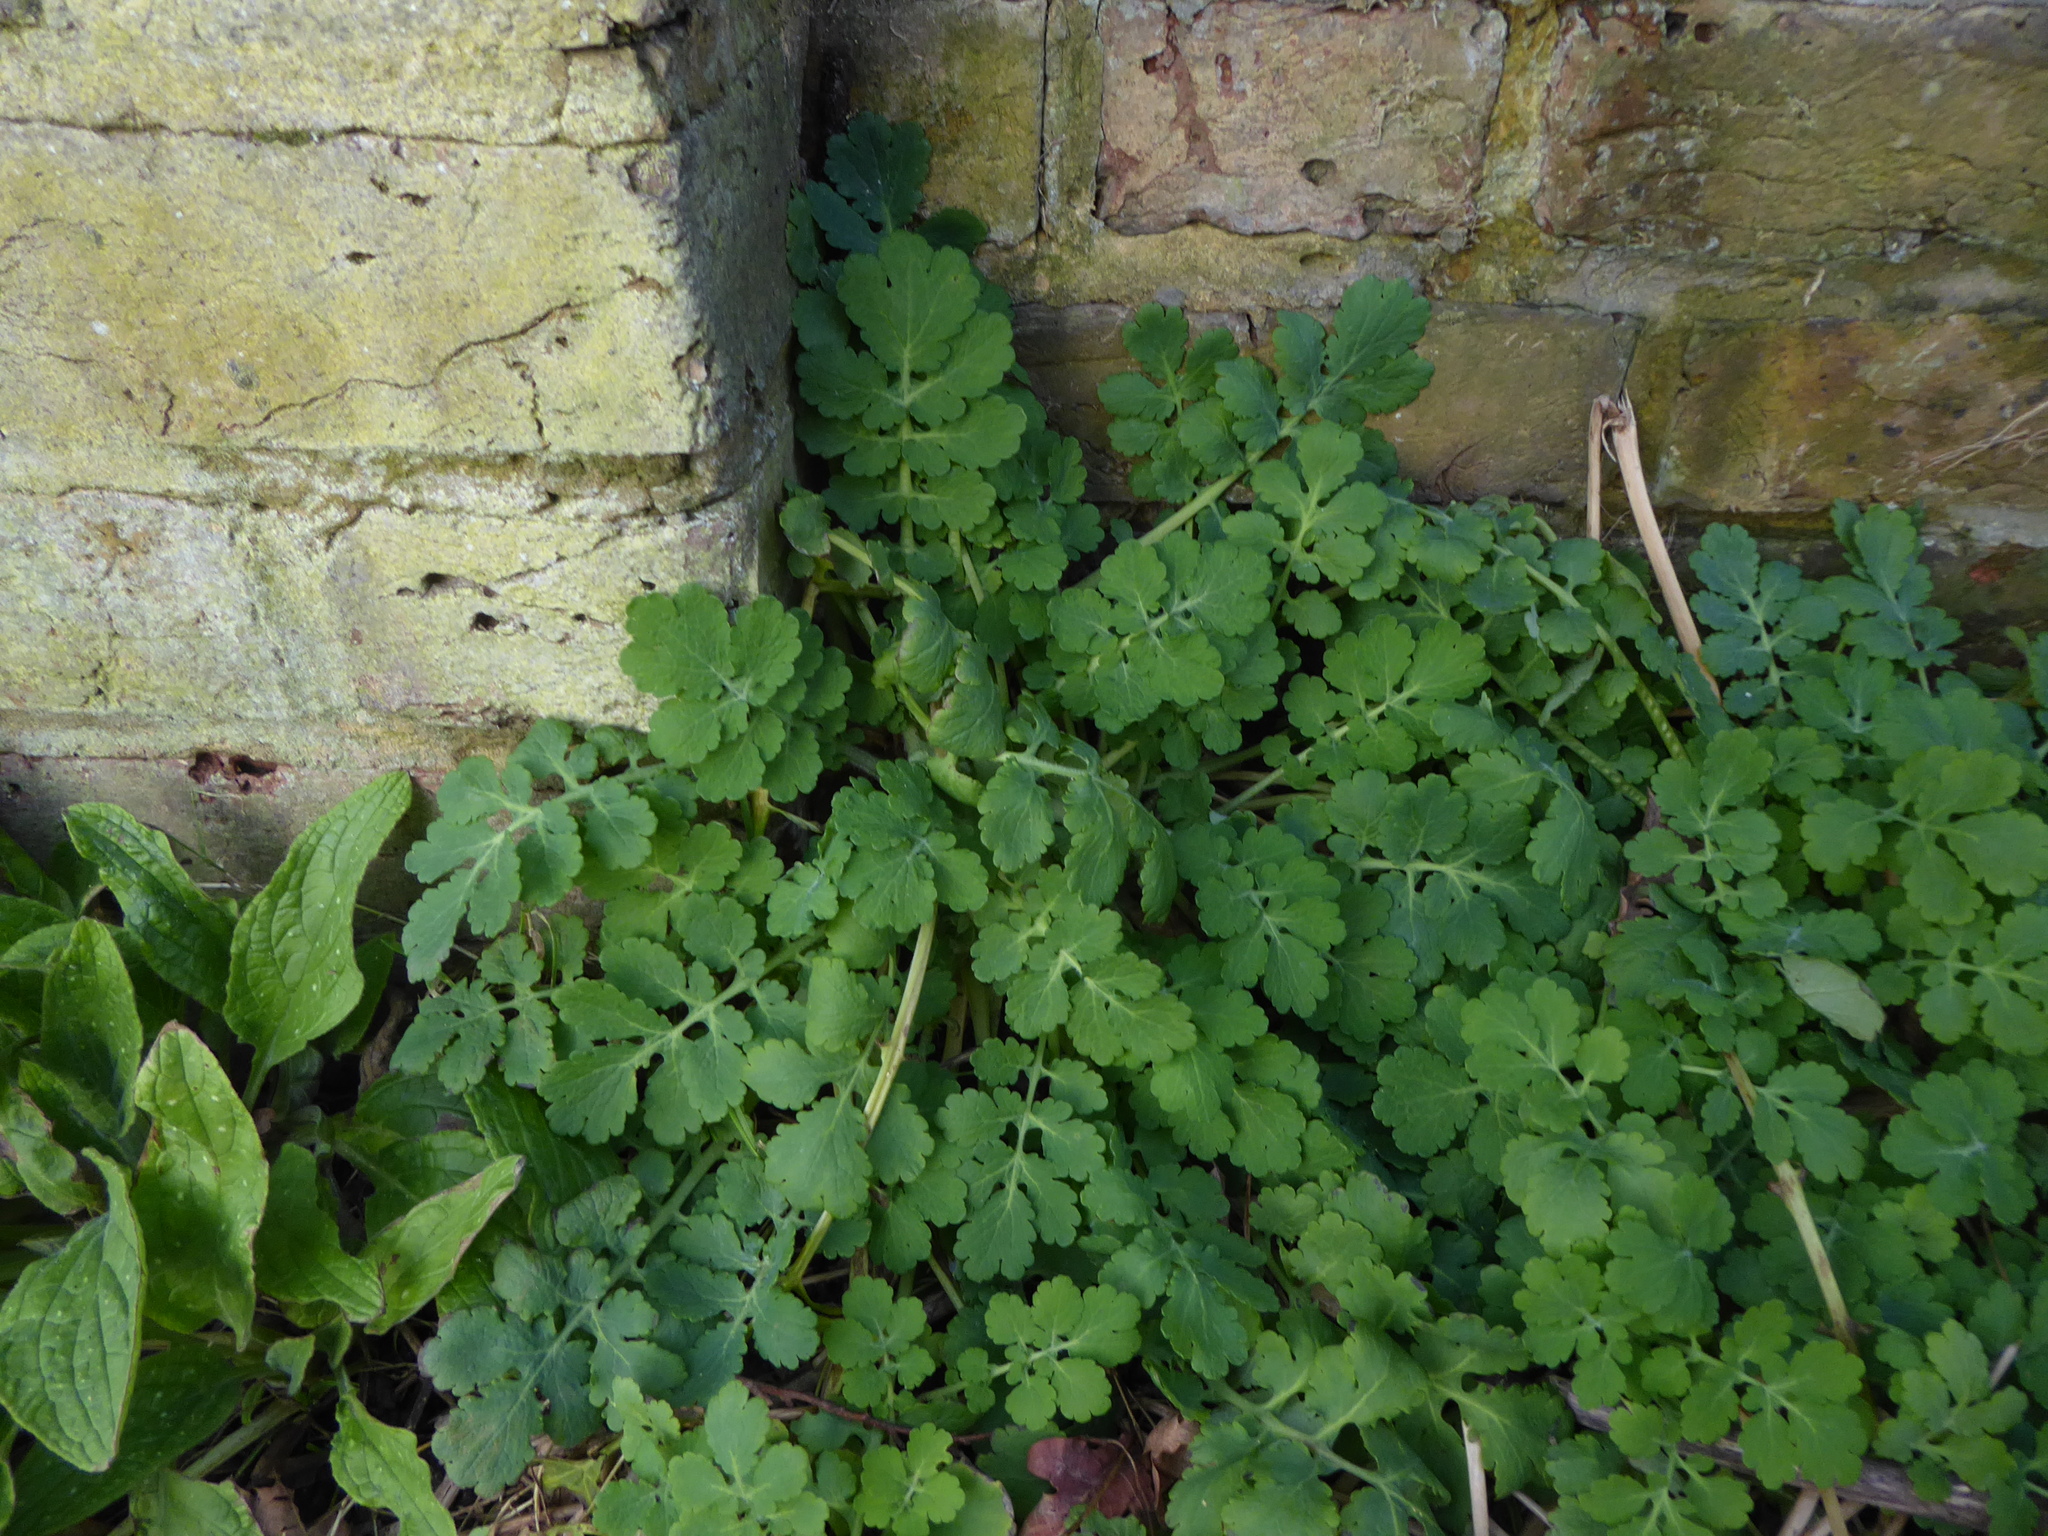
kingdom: Plantae
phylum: Tracheophyta
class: Magnoliopsida
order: Ranunculales
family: Papaveraceae
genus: Chelidonium
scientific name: Chelidonium majus
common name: Greater celandine
